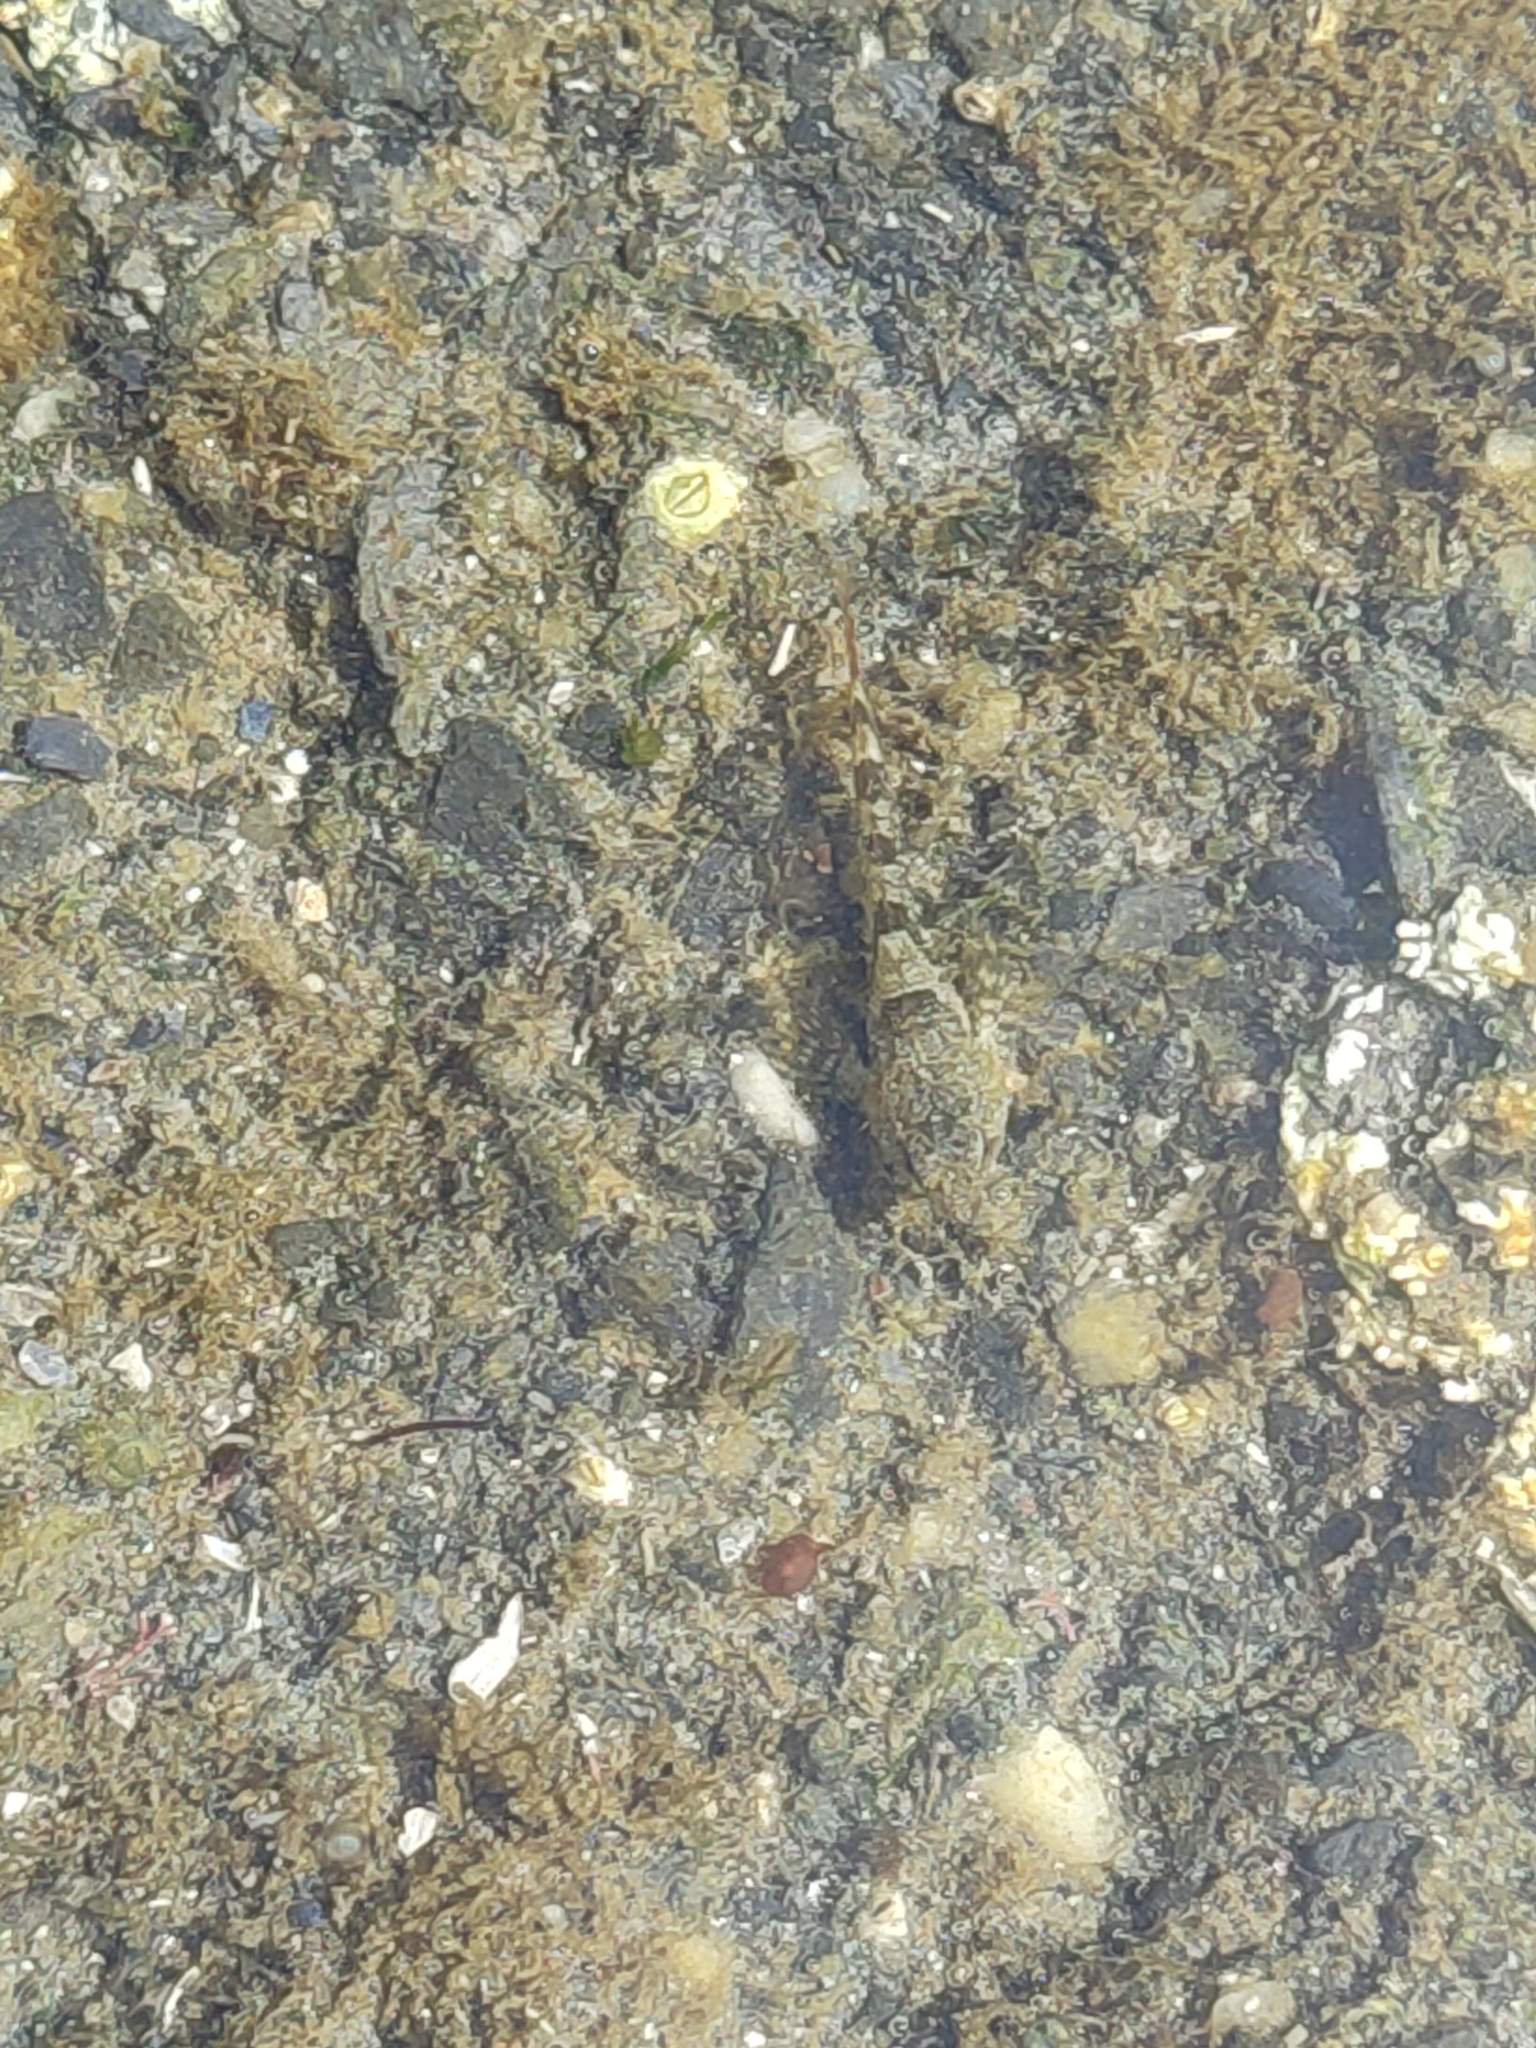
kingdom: Animalia
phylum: Chordata
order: Scorpaeniformes
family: Cottidae
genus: Oligocottus
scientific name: Oligocottus maculosus
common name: Tidepool sculpin
